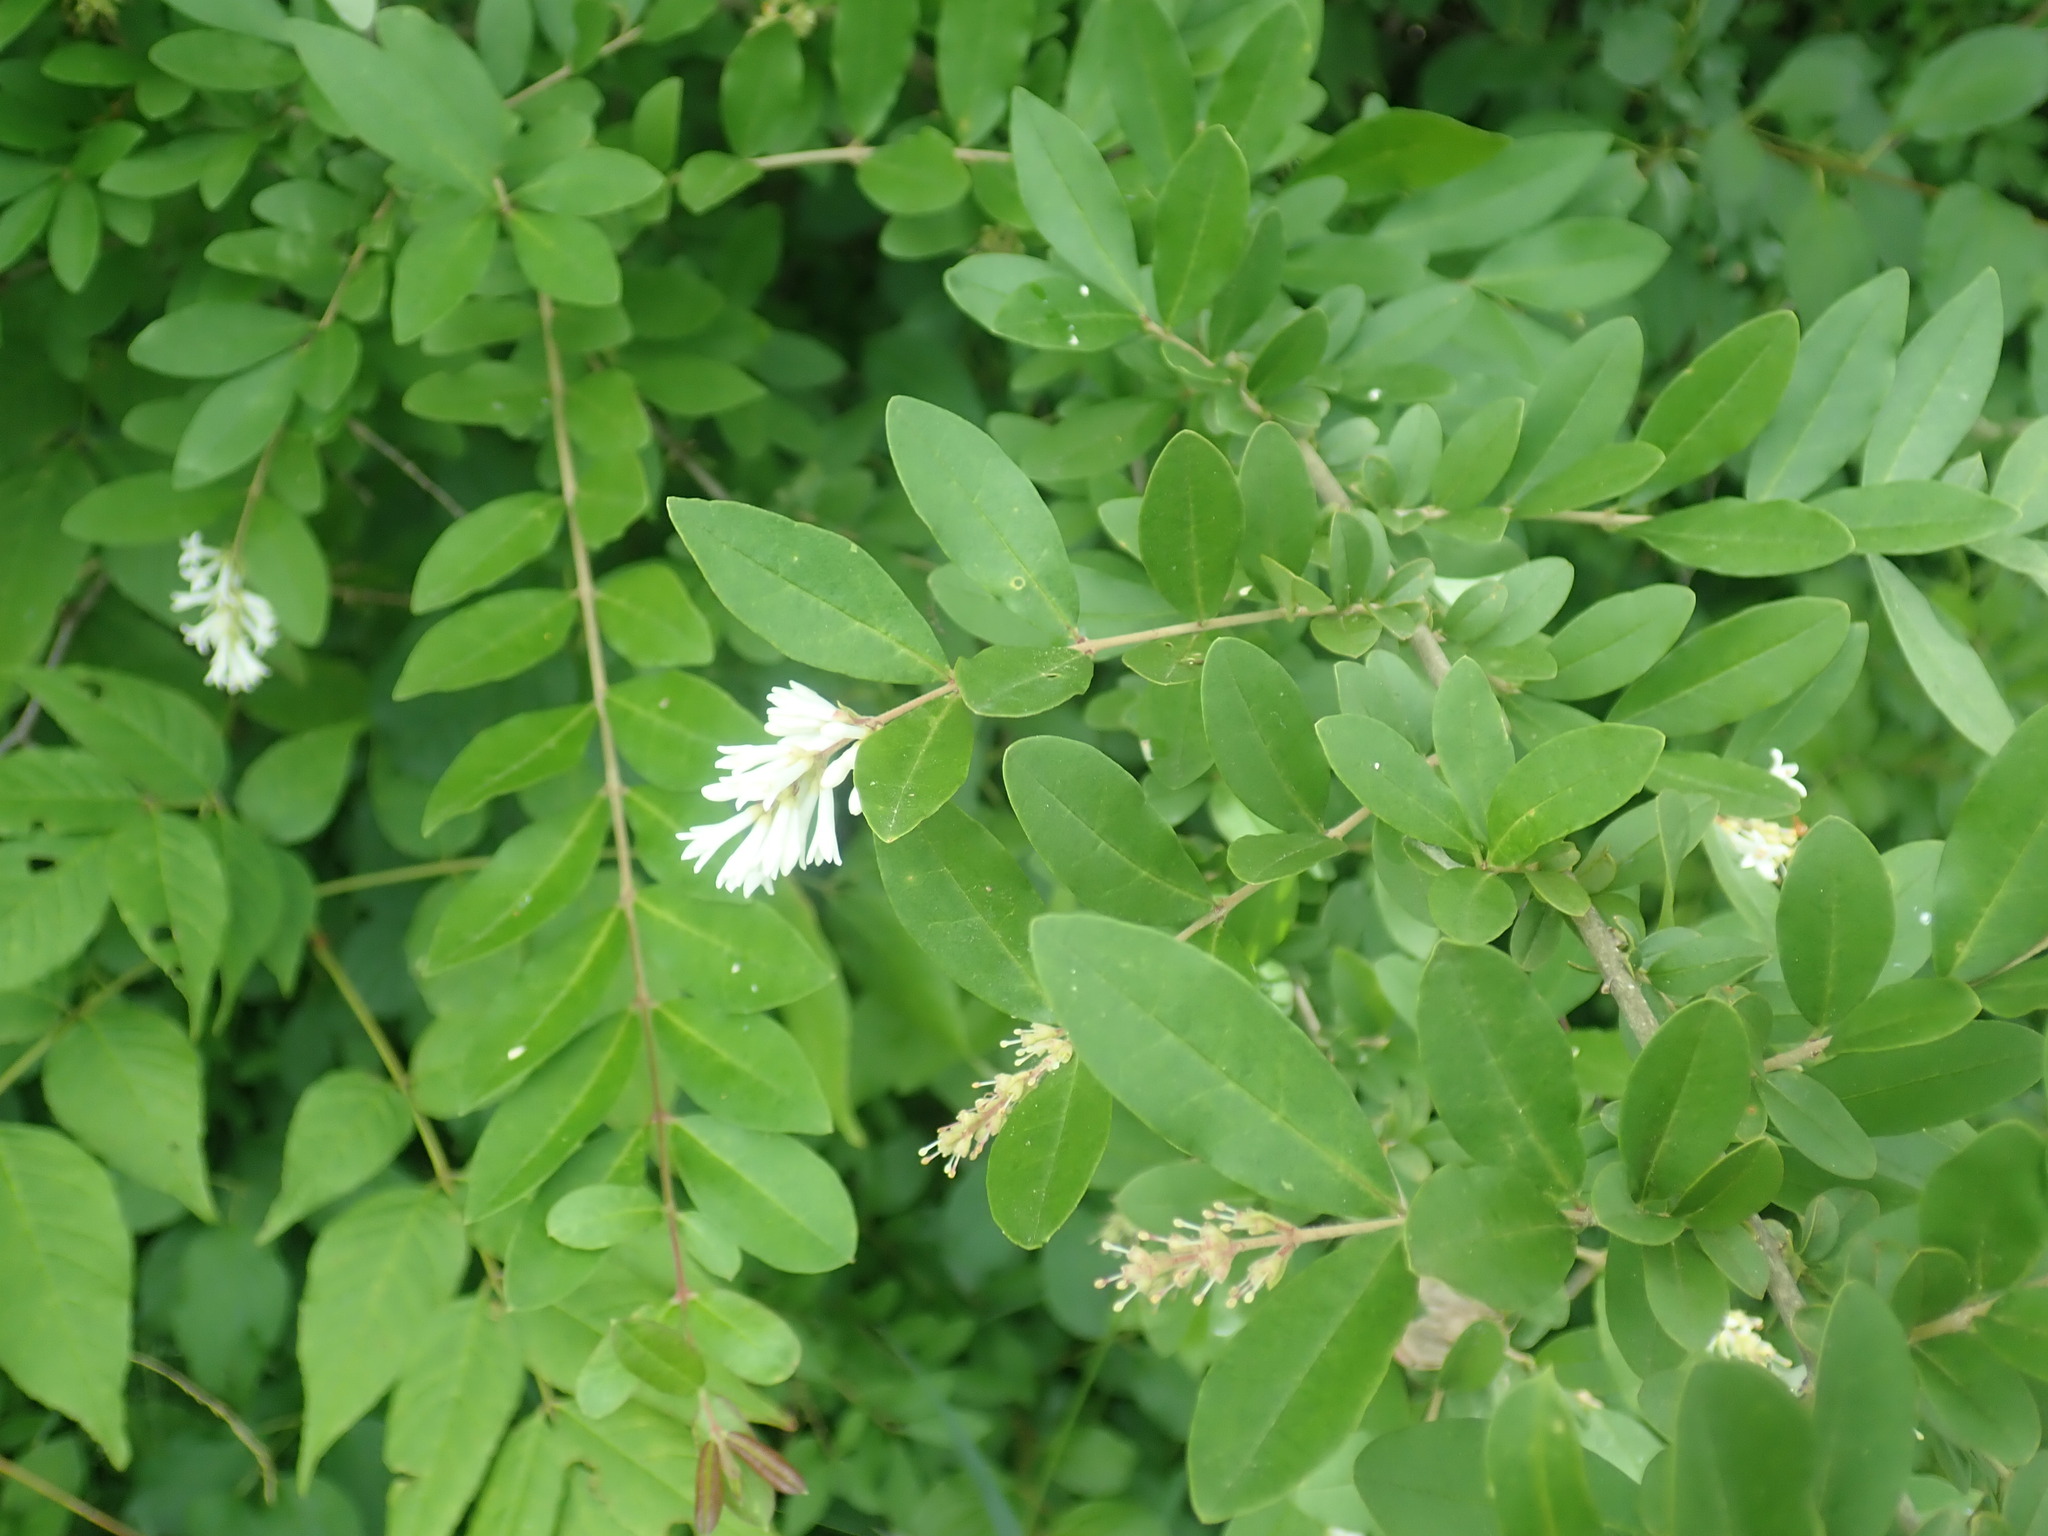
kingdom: Plantae
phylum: Tracheophyta
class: Magnoliopsida
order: Lamiales
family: Oleaceae
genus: Ligustrum
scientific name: Ligustrum obtusifolium
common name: Border privet
